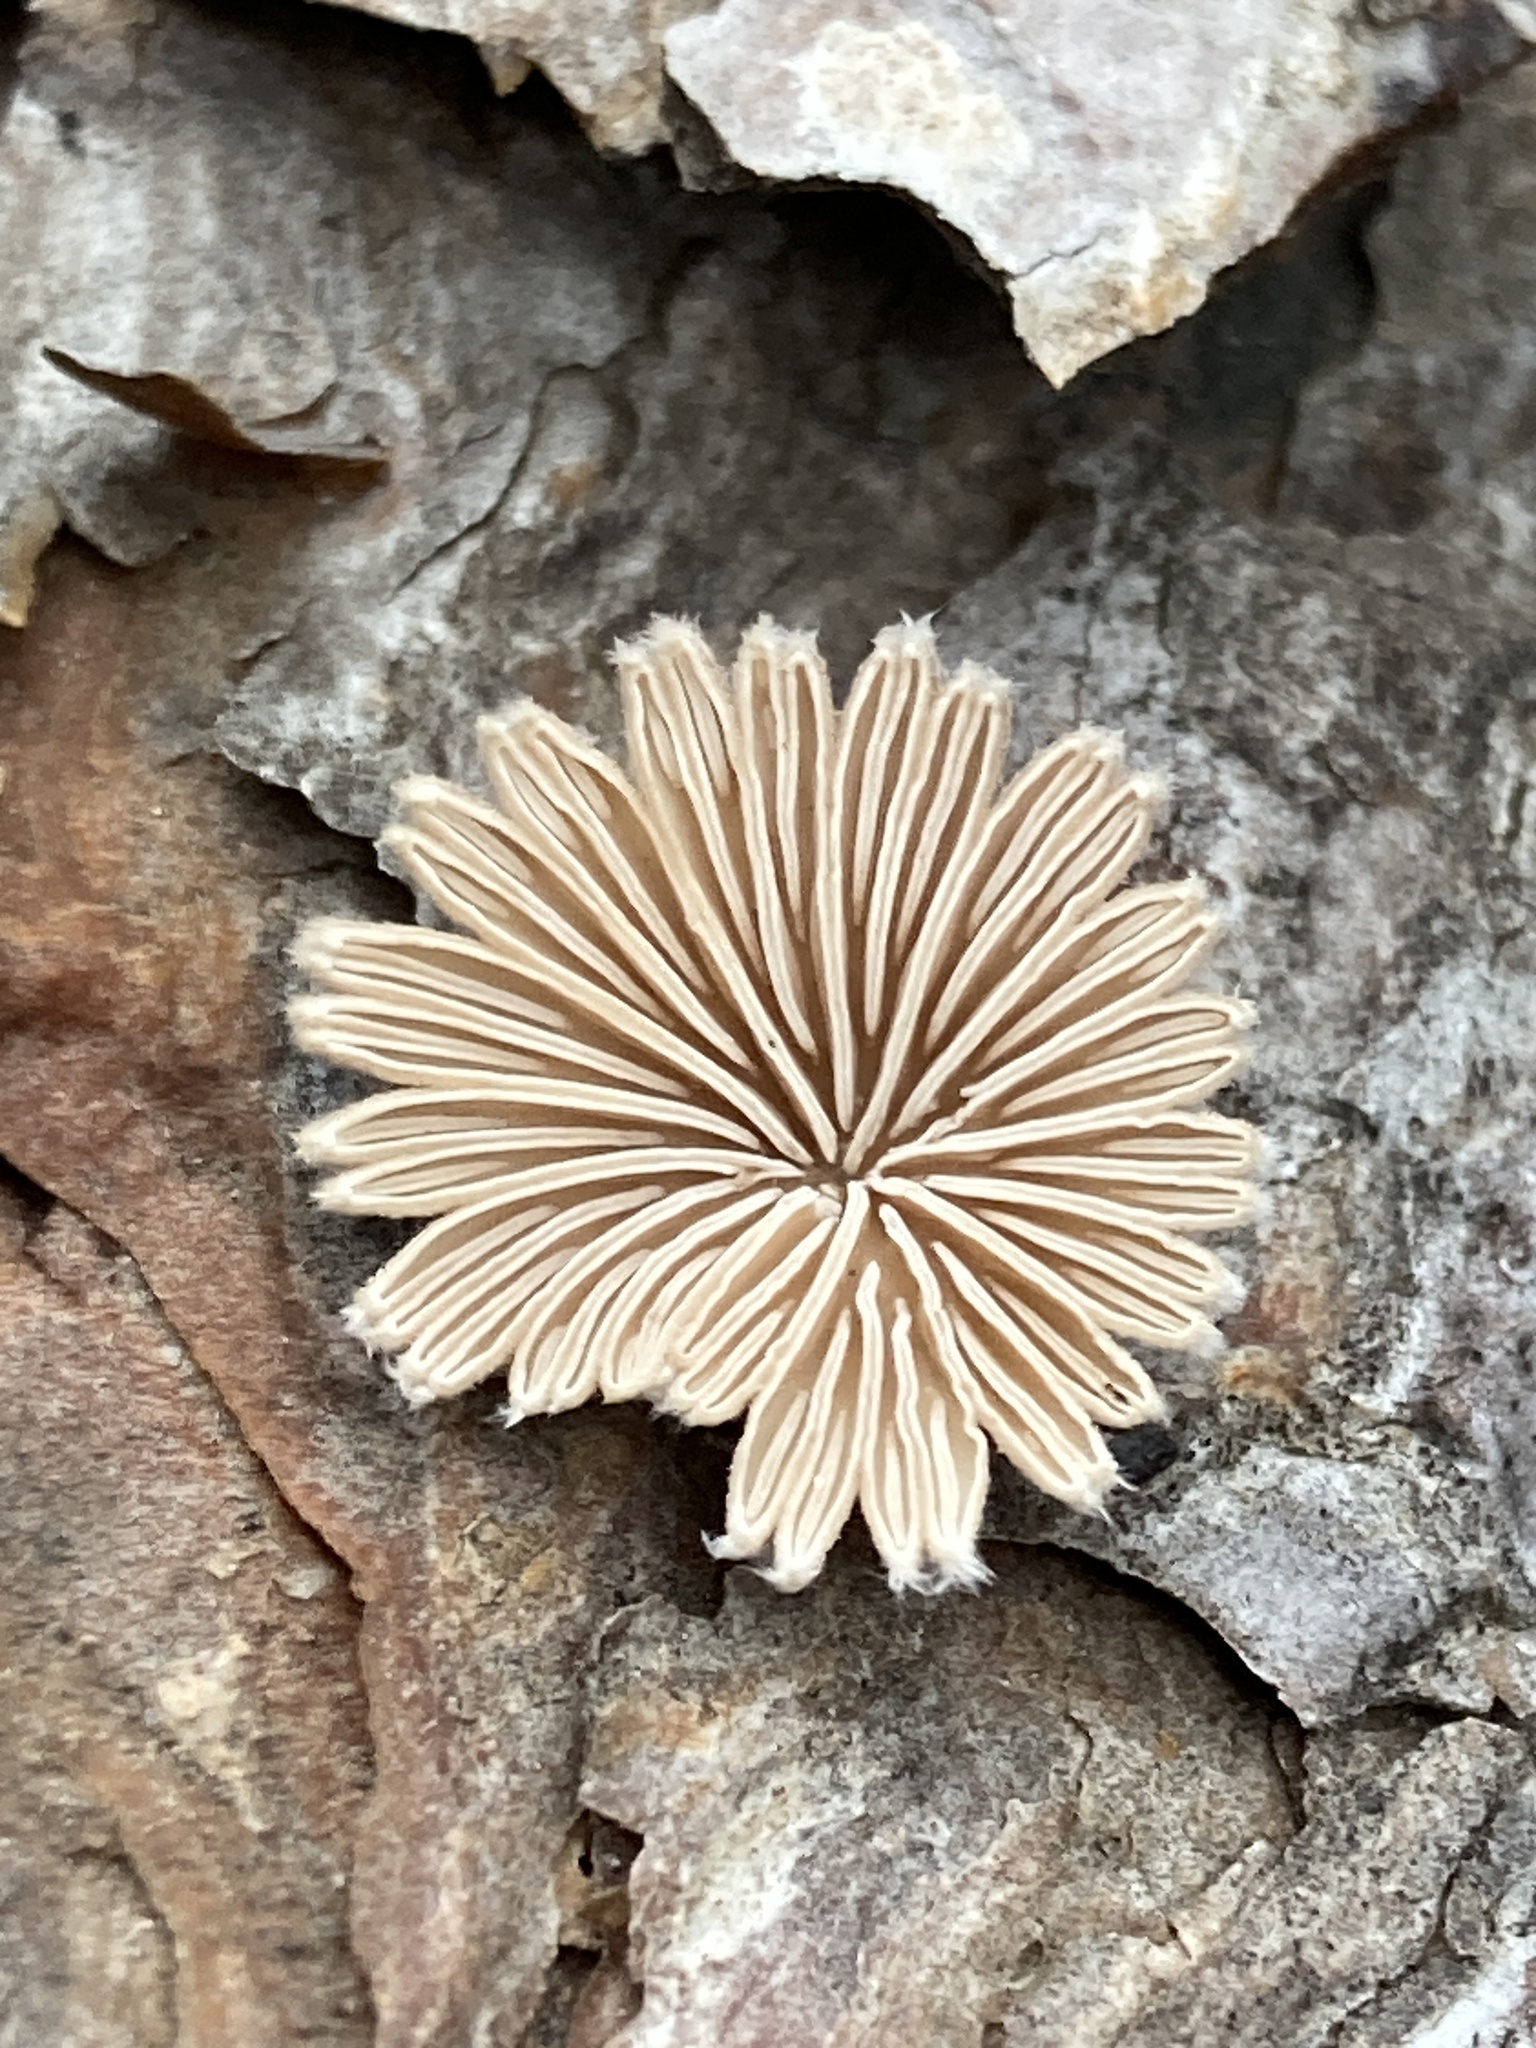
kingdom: Fungi
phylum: Basidiomycota
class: Agaricomycetes
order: Agaricales
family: Schizophyllaceae
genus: Schizophyllum
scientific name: Schizophyllum commune
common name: Common porecrust
